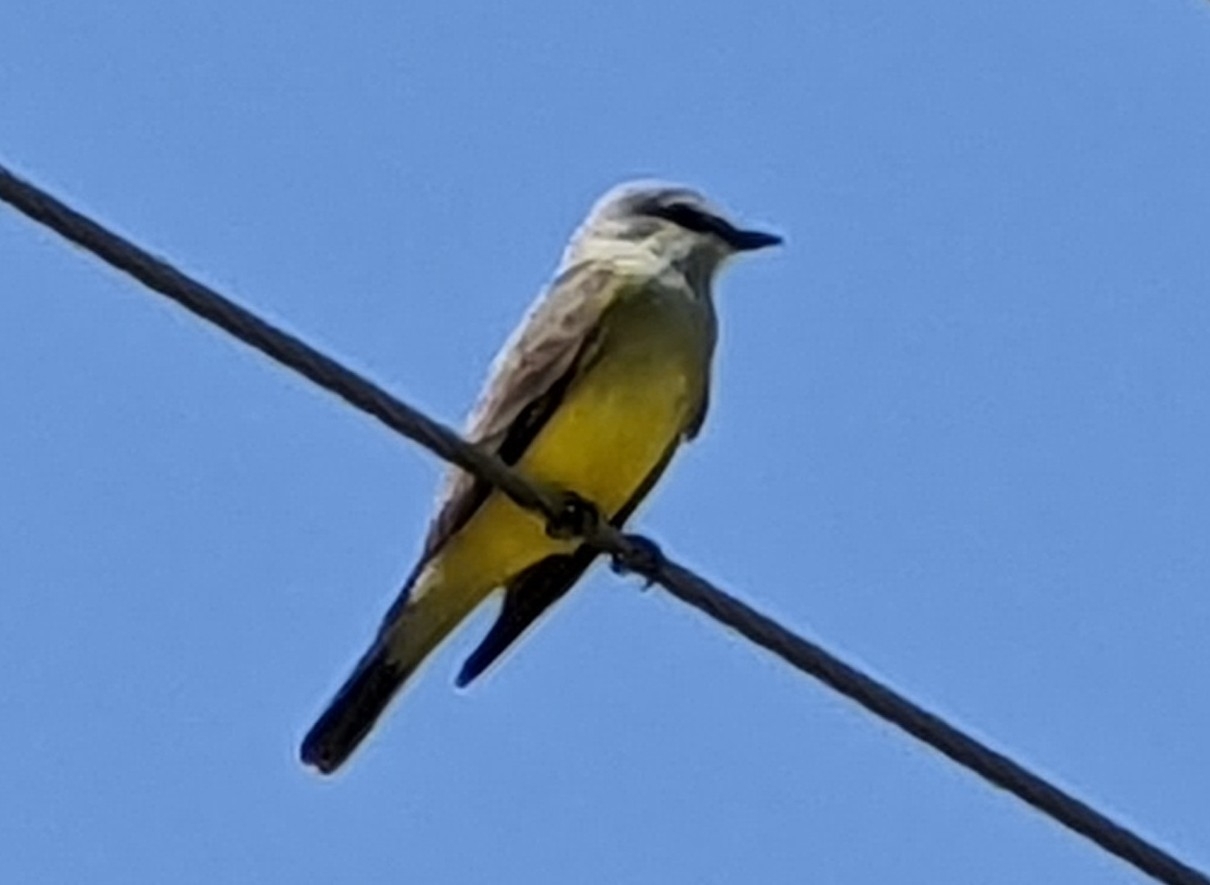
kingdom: Animalia
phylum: Chordata
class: Aves
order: Passeriformes
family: Tyrannidae
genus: Tyrannus
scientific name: Tyrannus verticalis
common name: Western kingbird
